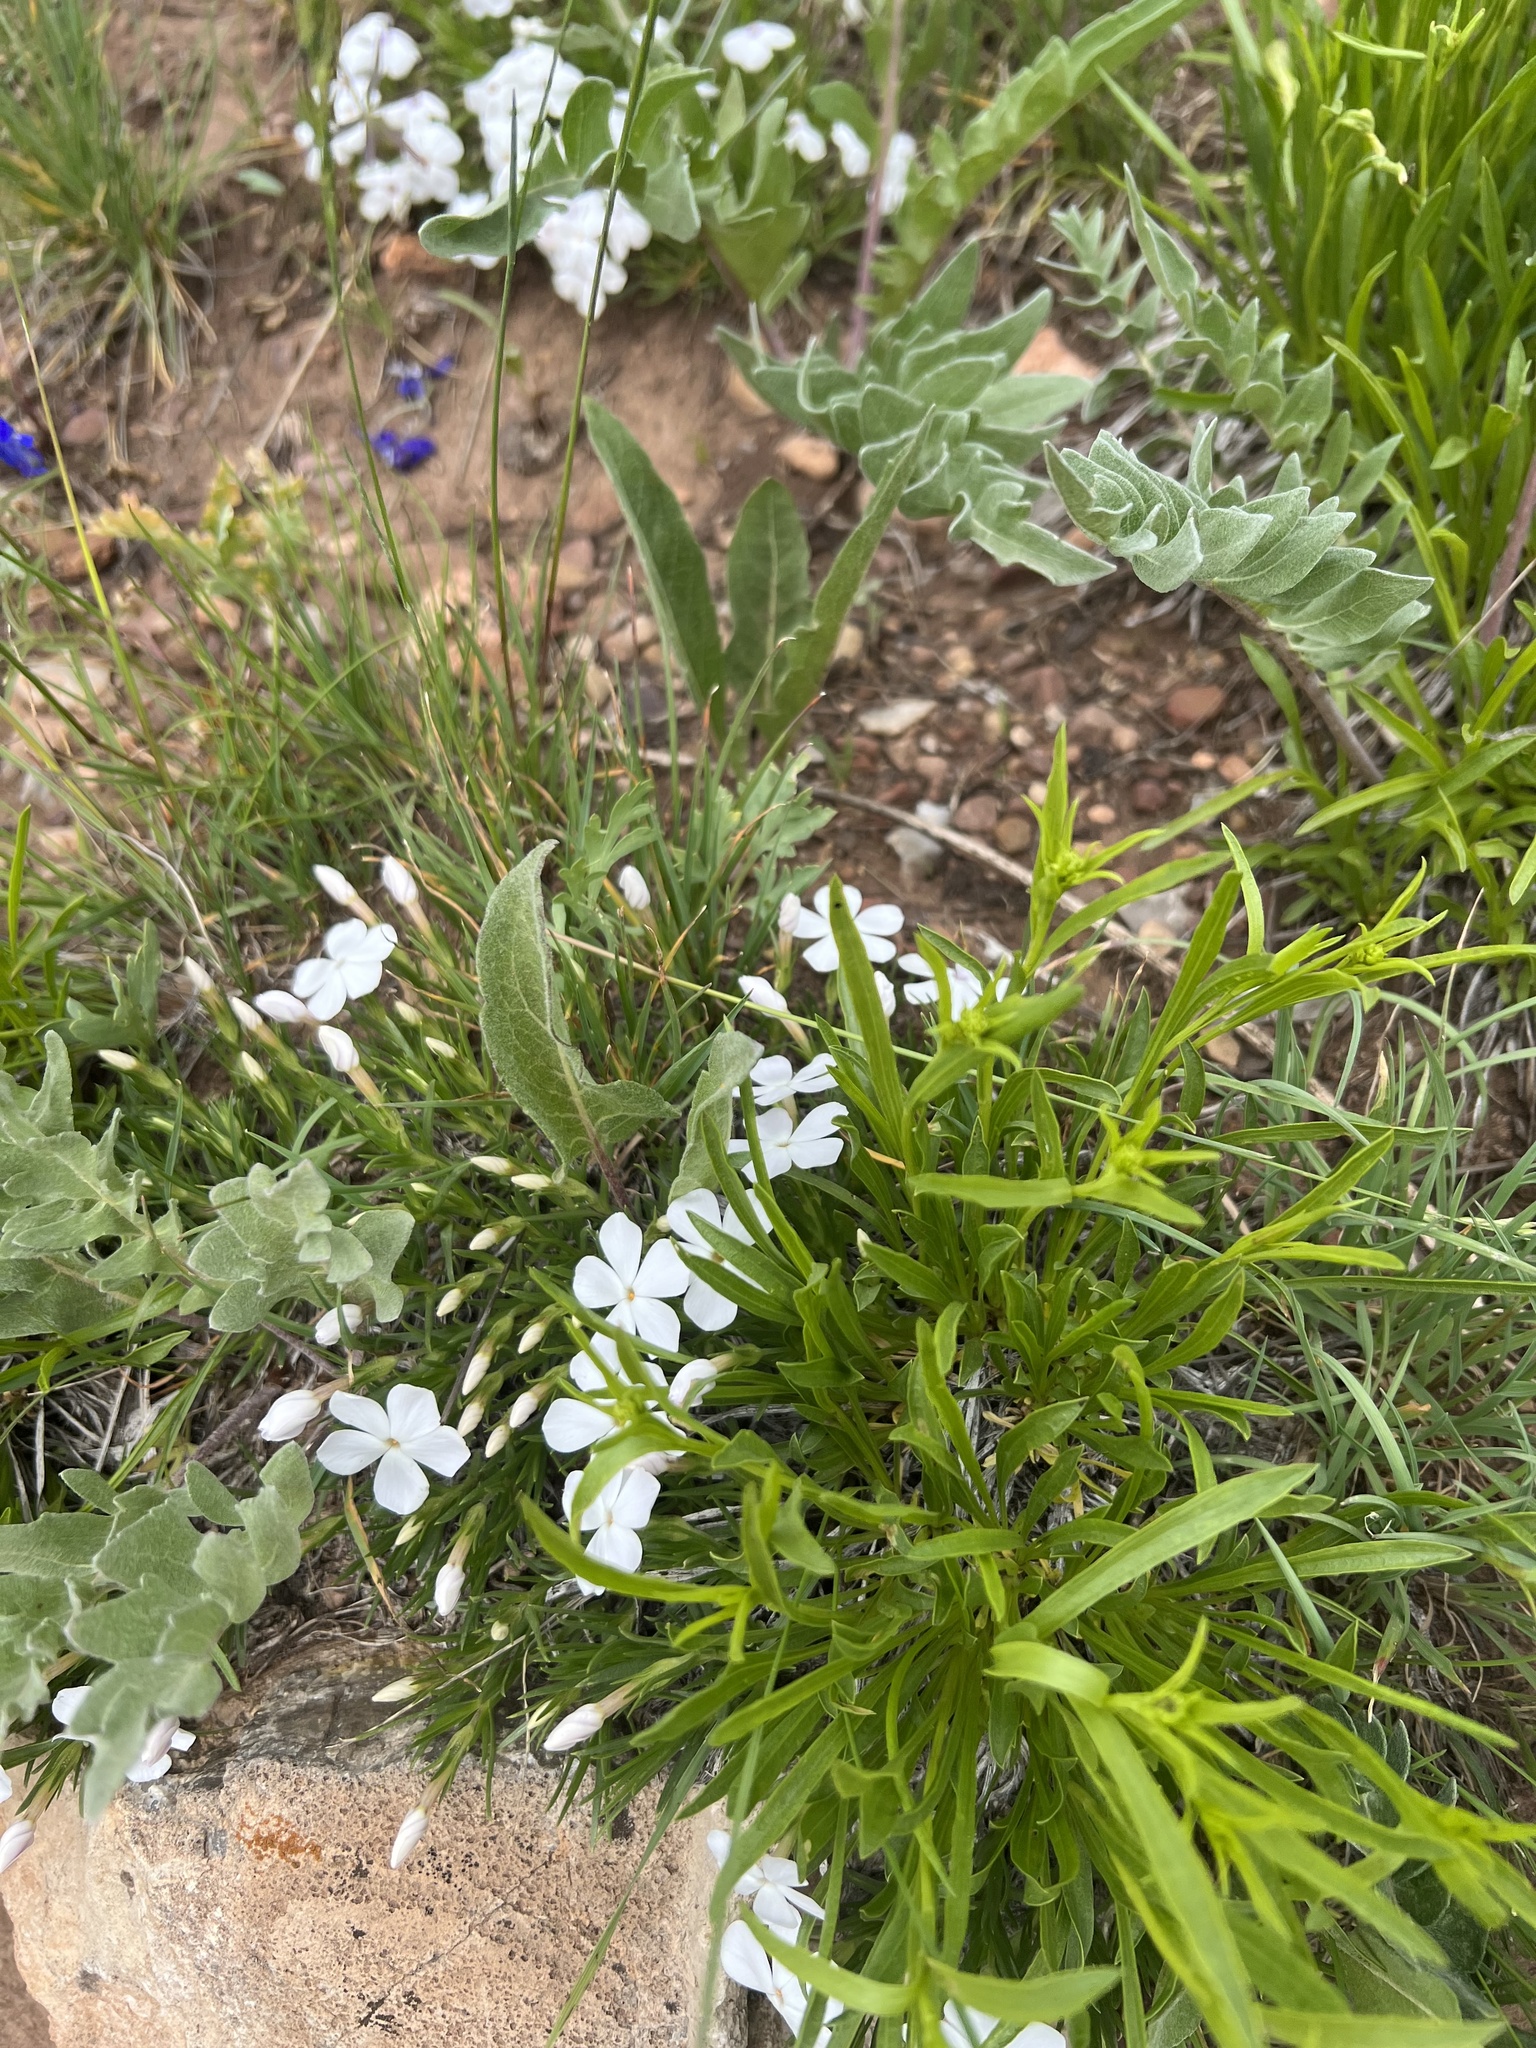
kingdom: Plantae
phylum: Tracheophyta
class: Magnoliopsida
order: Ericales
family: Polemoniaceae
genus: Phlox
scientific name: Phlox multiflora
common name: Rocky mountain phlox
